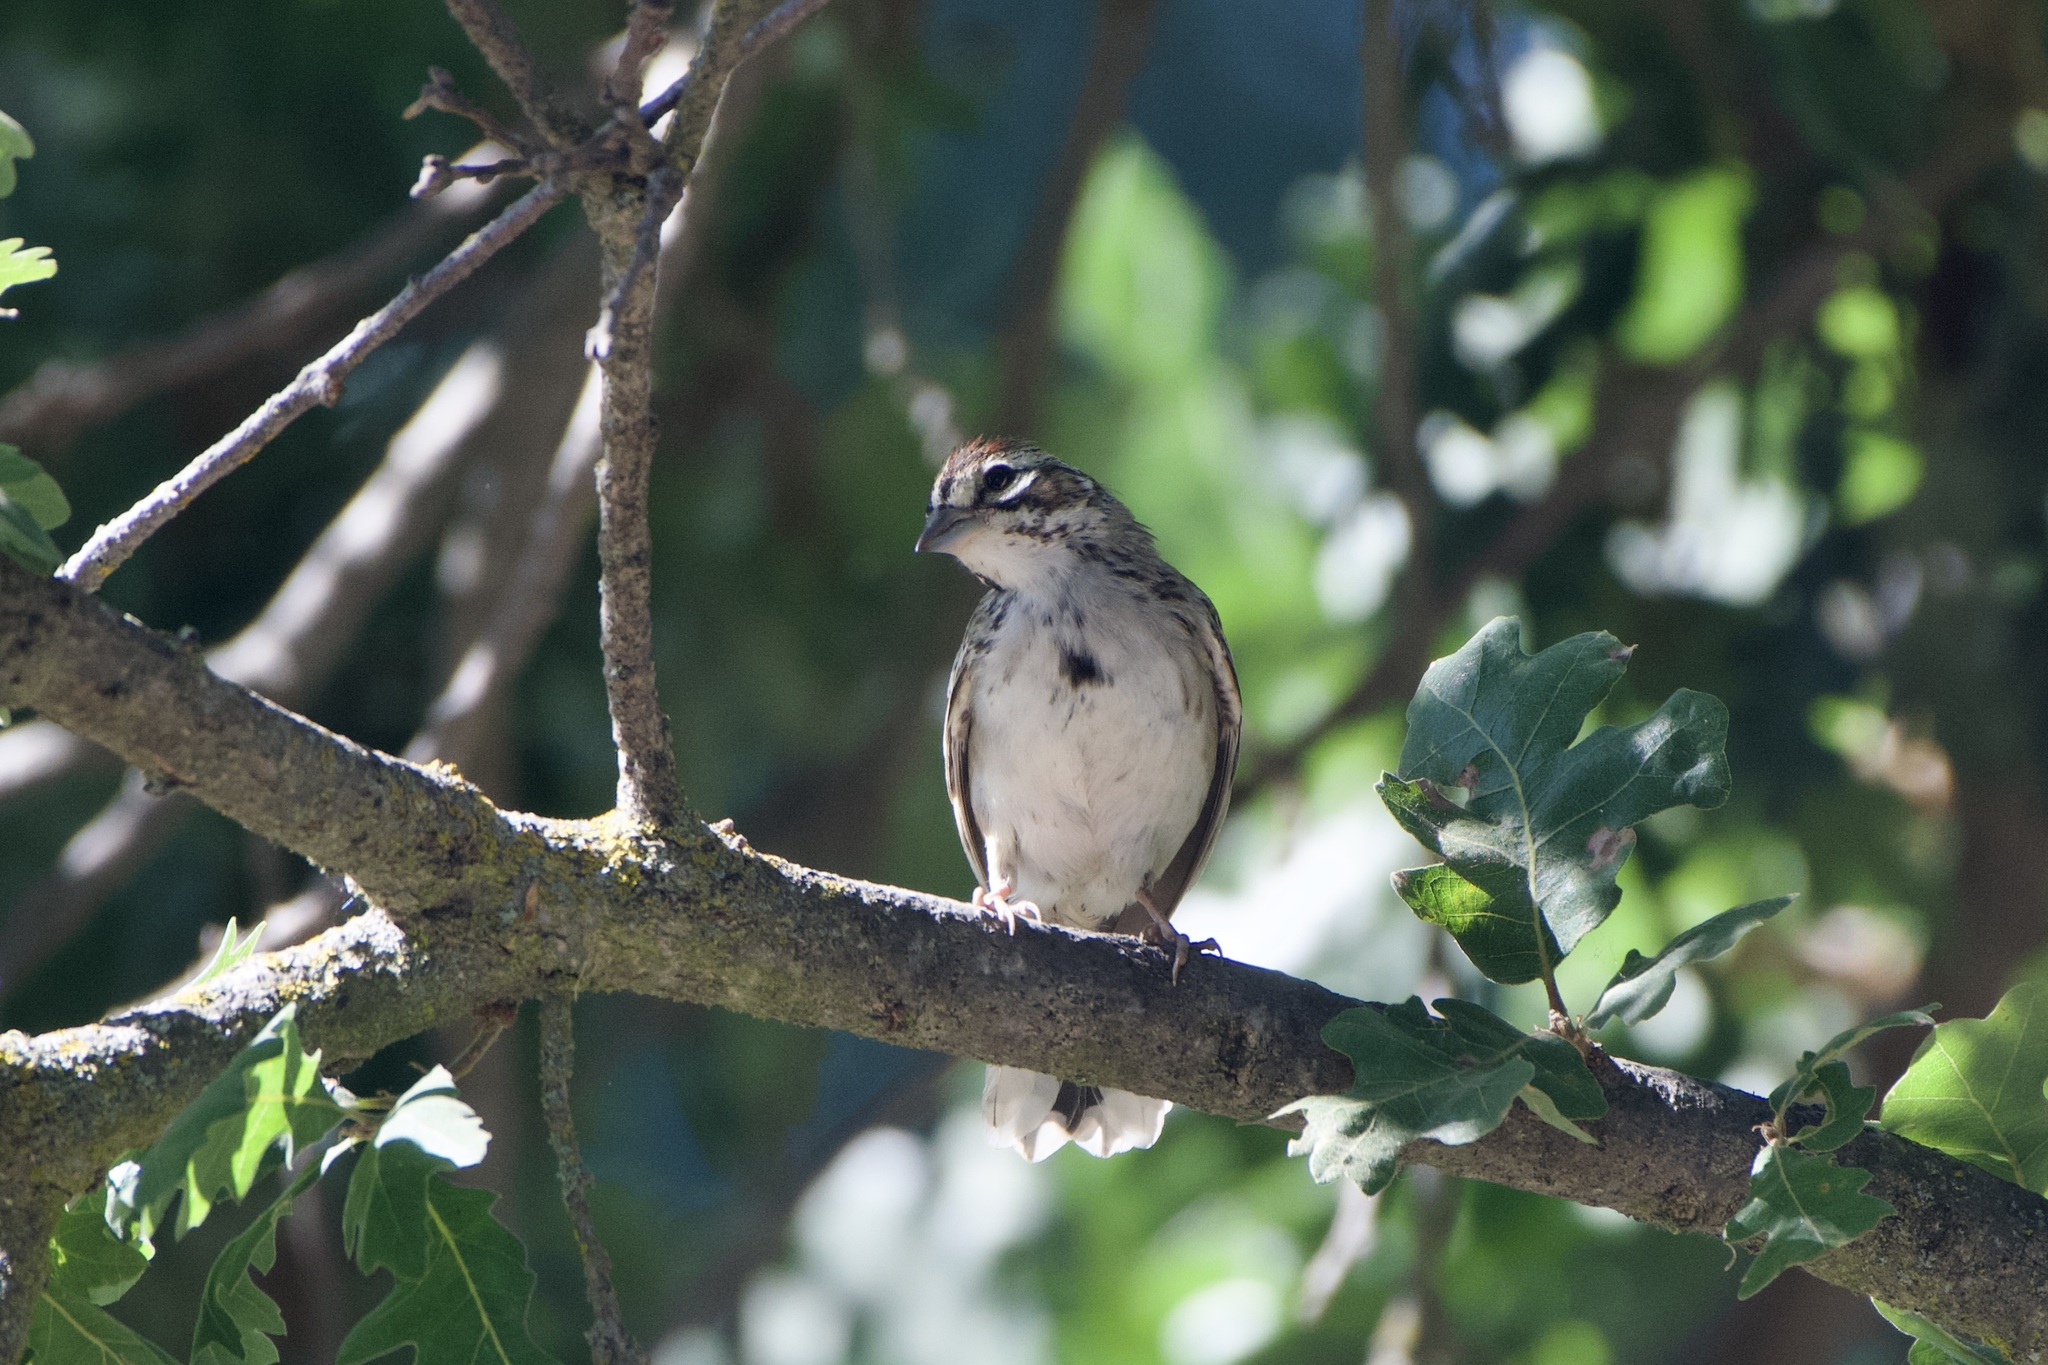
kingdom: Animalia
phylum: Chordata
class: Aves
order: Passeriformes
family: Passerellidae
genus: Chondestes
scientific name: Chondestes grammacus
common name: Lark sparrow
